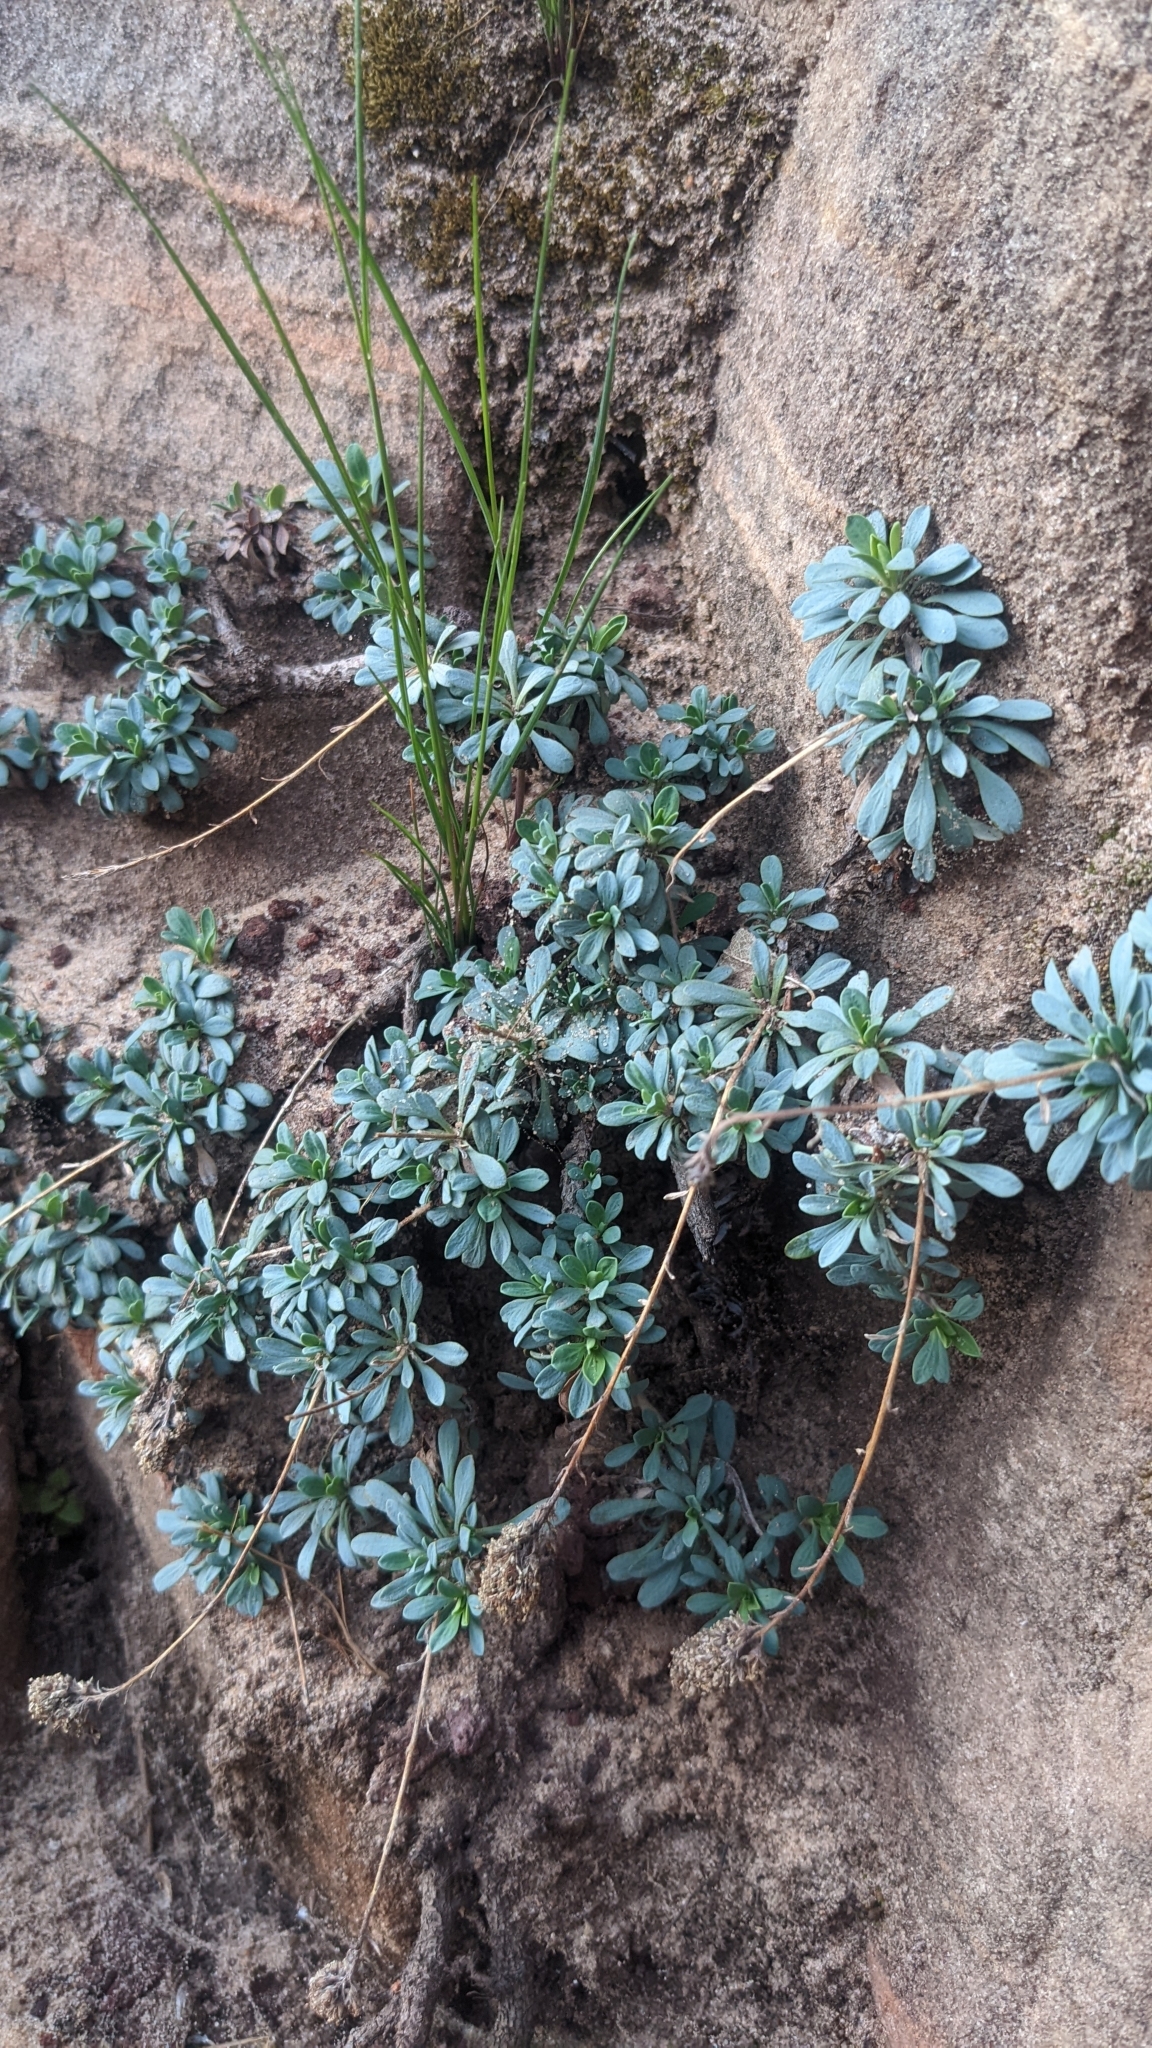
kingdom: Plantae
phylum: Tracheophyta
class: Magnoliopsida
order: Rosales
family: Rosaceae
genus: Petrophytum
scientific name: Petrophytum caespitosum
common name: Mat rockspirea
